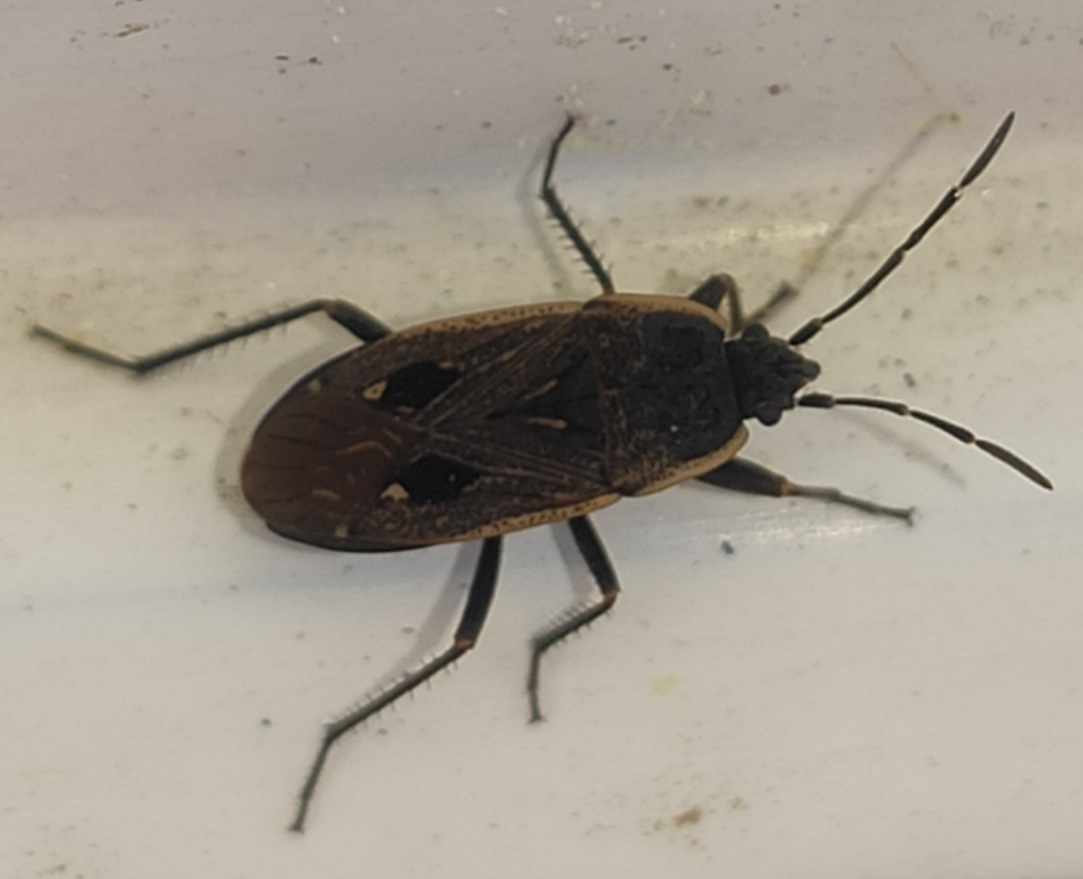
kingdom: Animalia
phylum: Arthropoda
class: Insecta
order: Hemiptera
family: Rhyparochromidae
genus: Graptopeltus
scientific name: Graptopeltus lynceus
